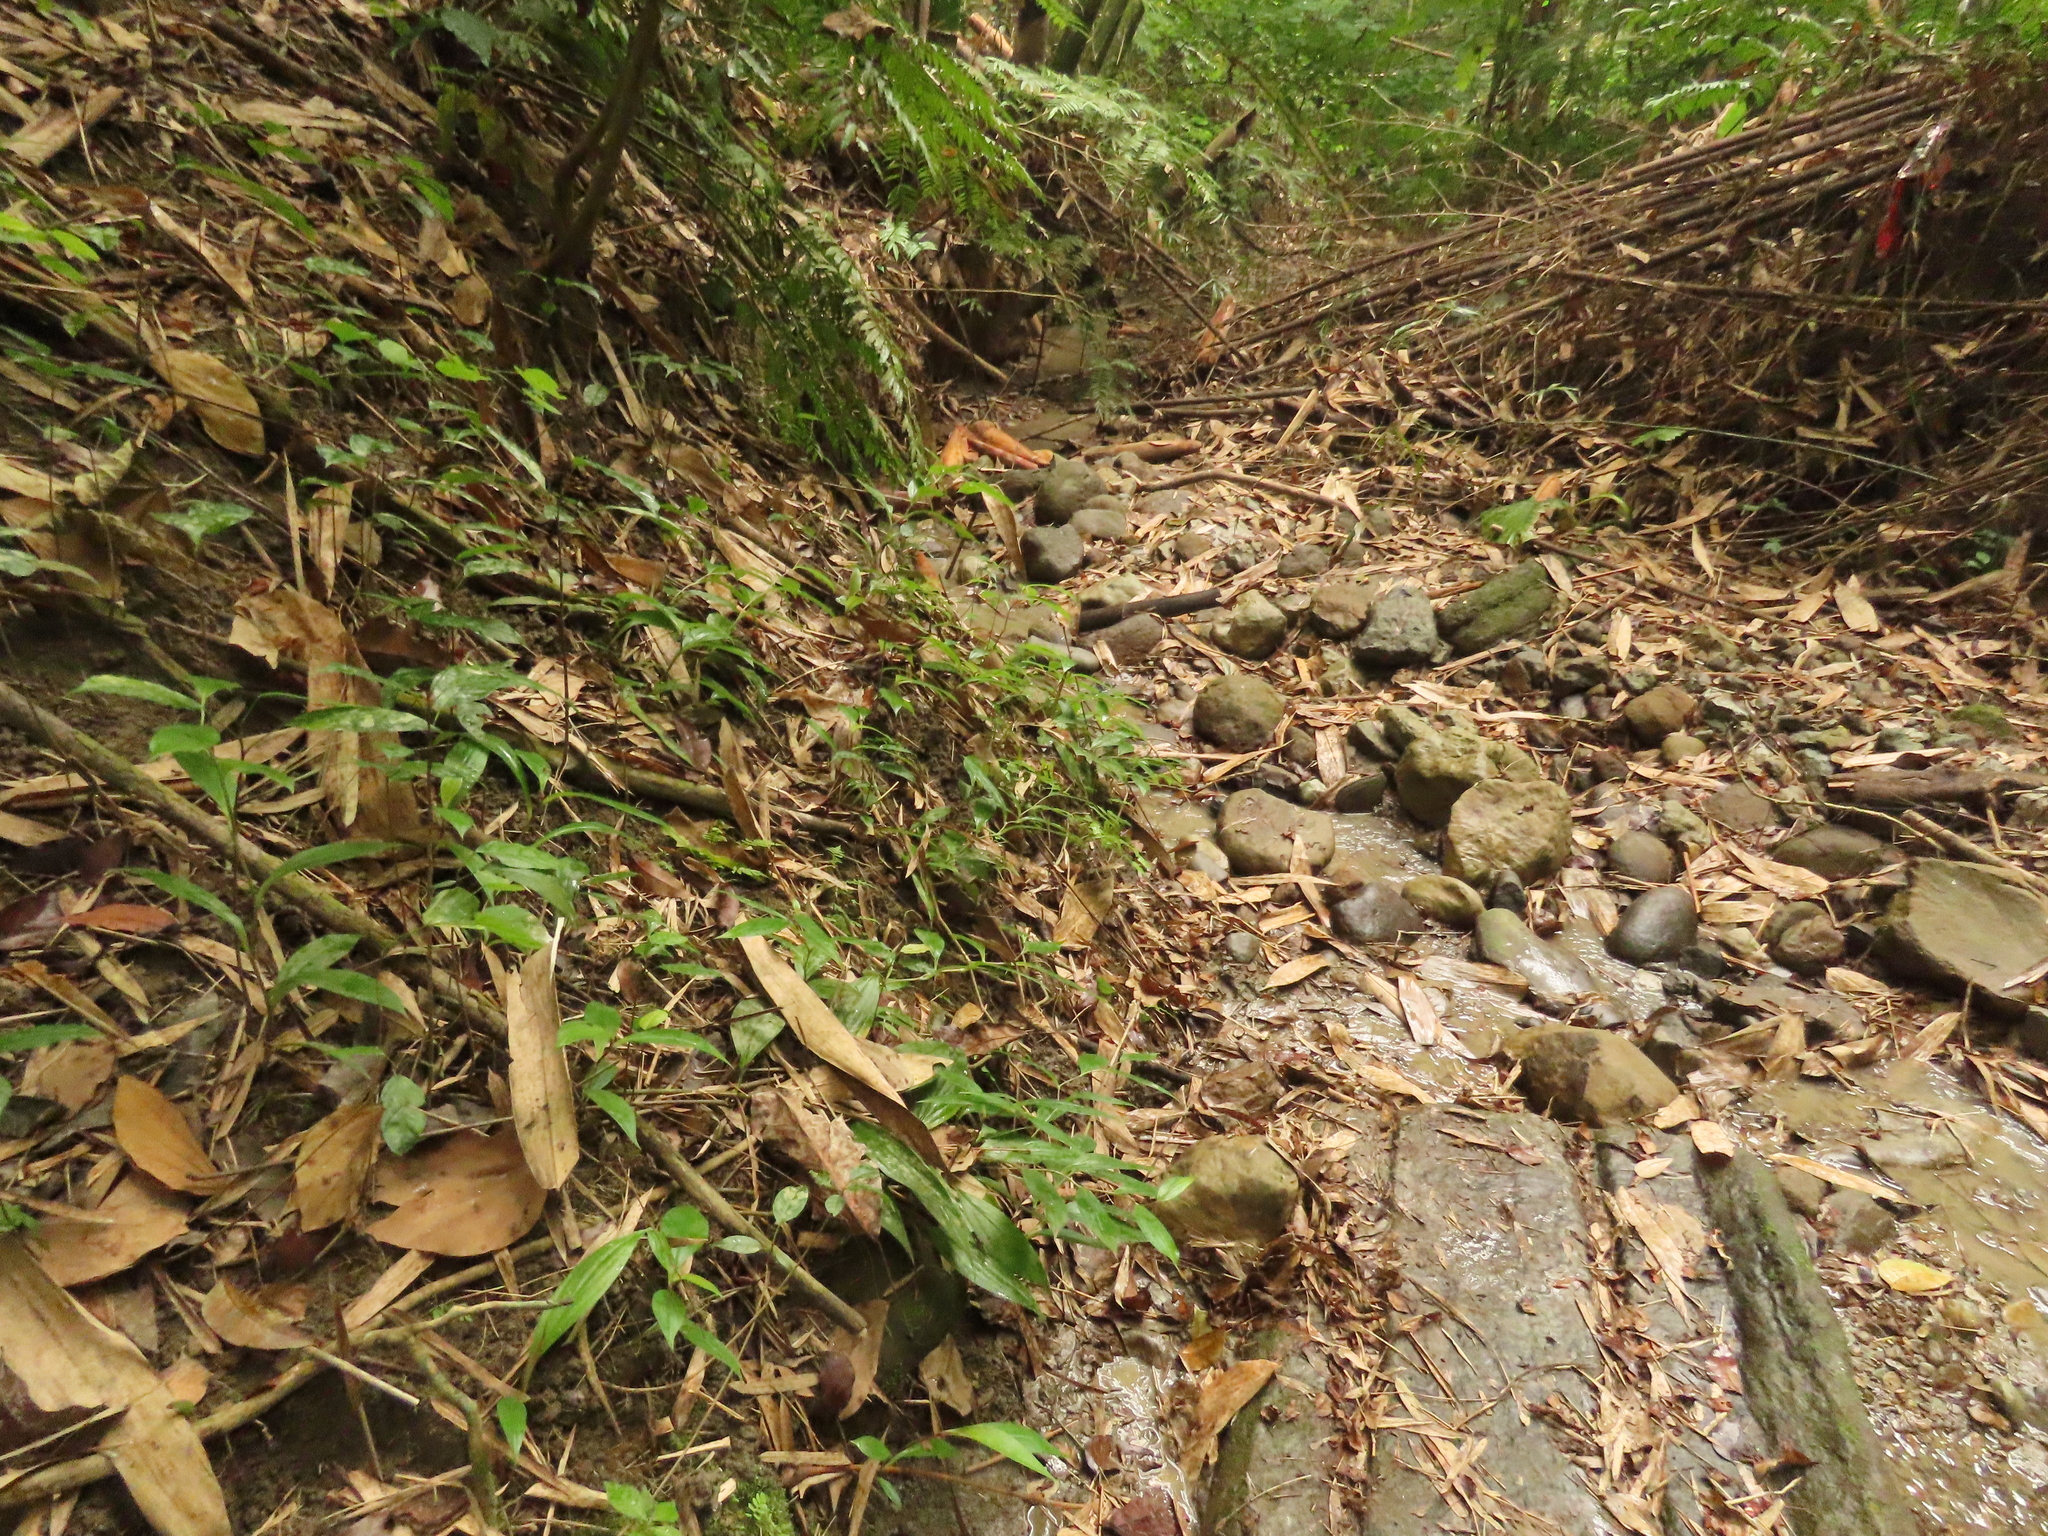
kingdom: Plantae
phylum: Tracheophyta
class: Liliopsida
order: Liliales
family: Liliaceae
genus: Tricyrtis
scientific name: Tricyrtis formosana
